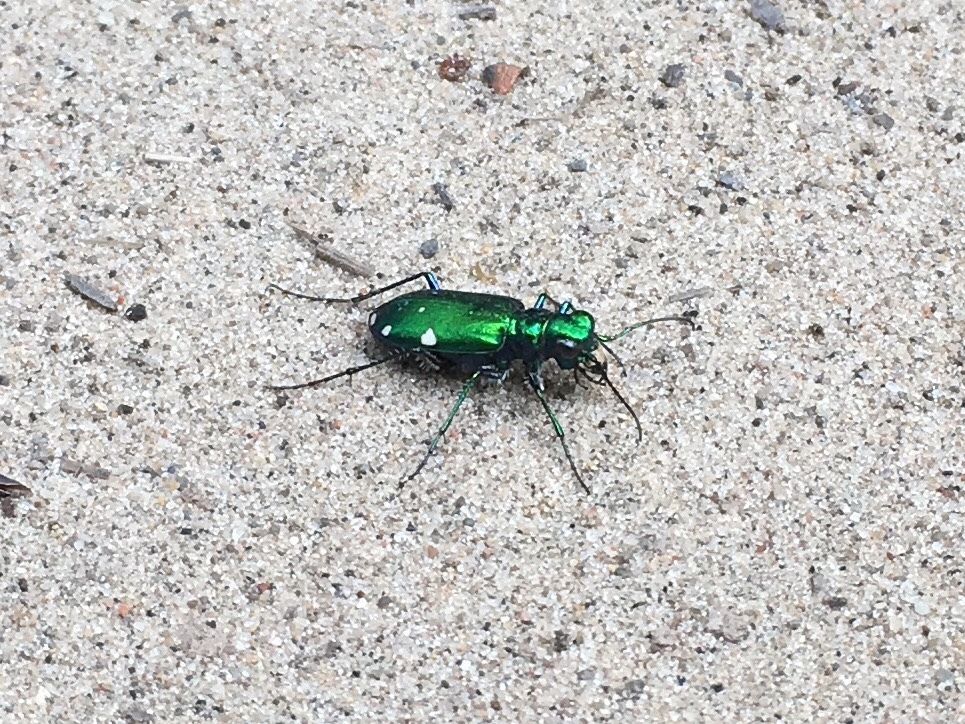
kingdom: Animalia
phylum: Arthropoda
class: Insecta
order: Coleoptera
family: Carabidae
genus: Cicindela
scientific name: Cicindela sexguttata
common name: Six-spotted tiger beetle
